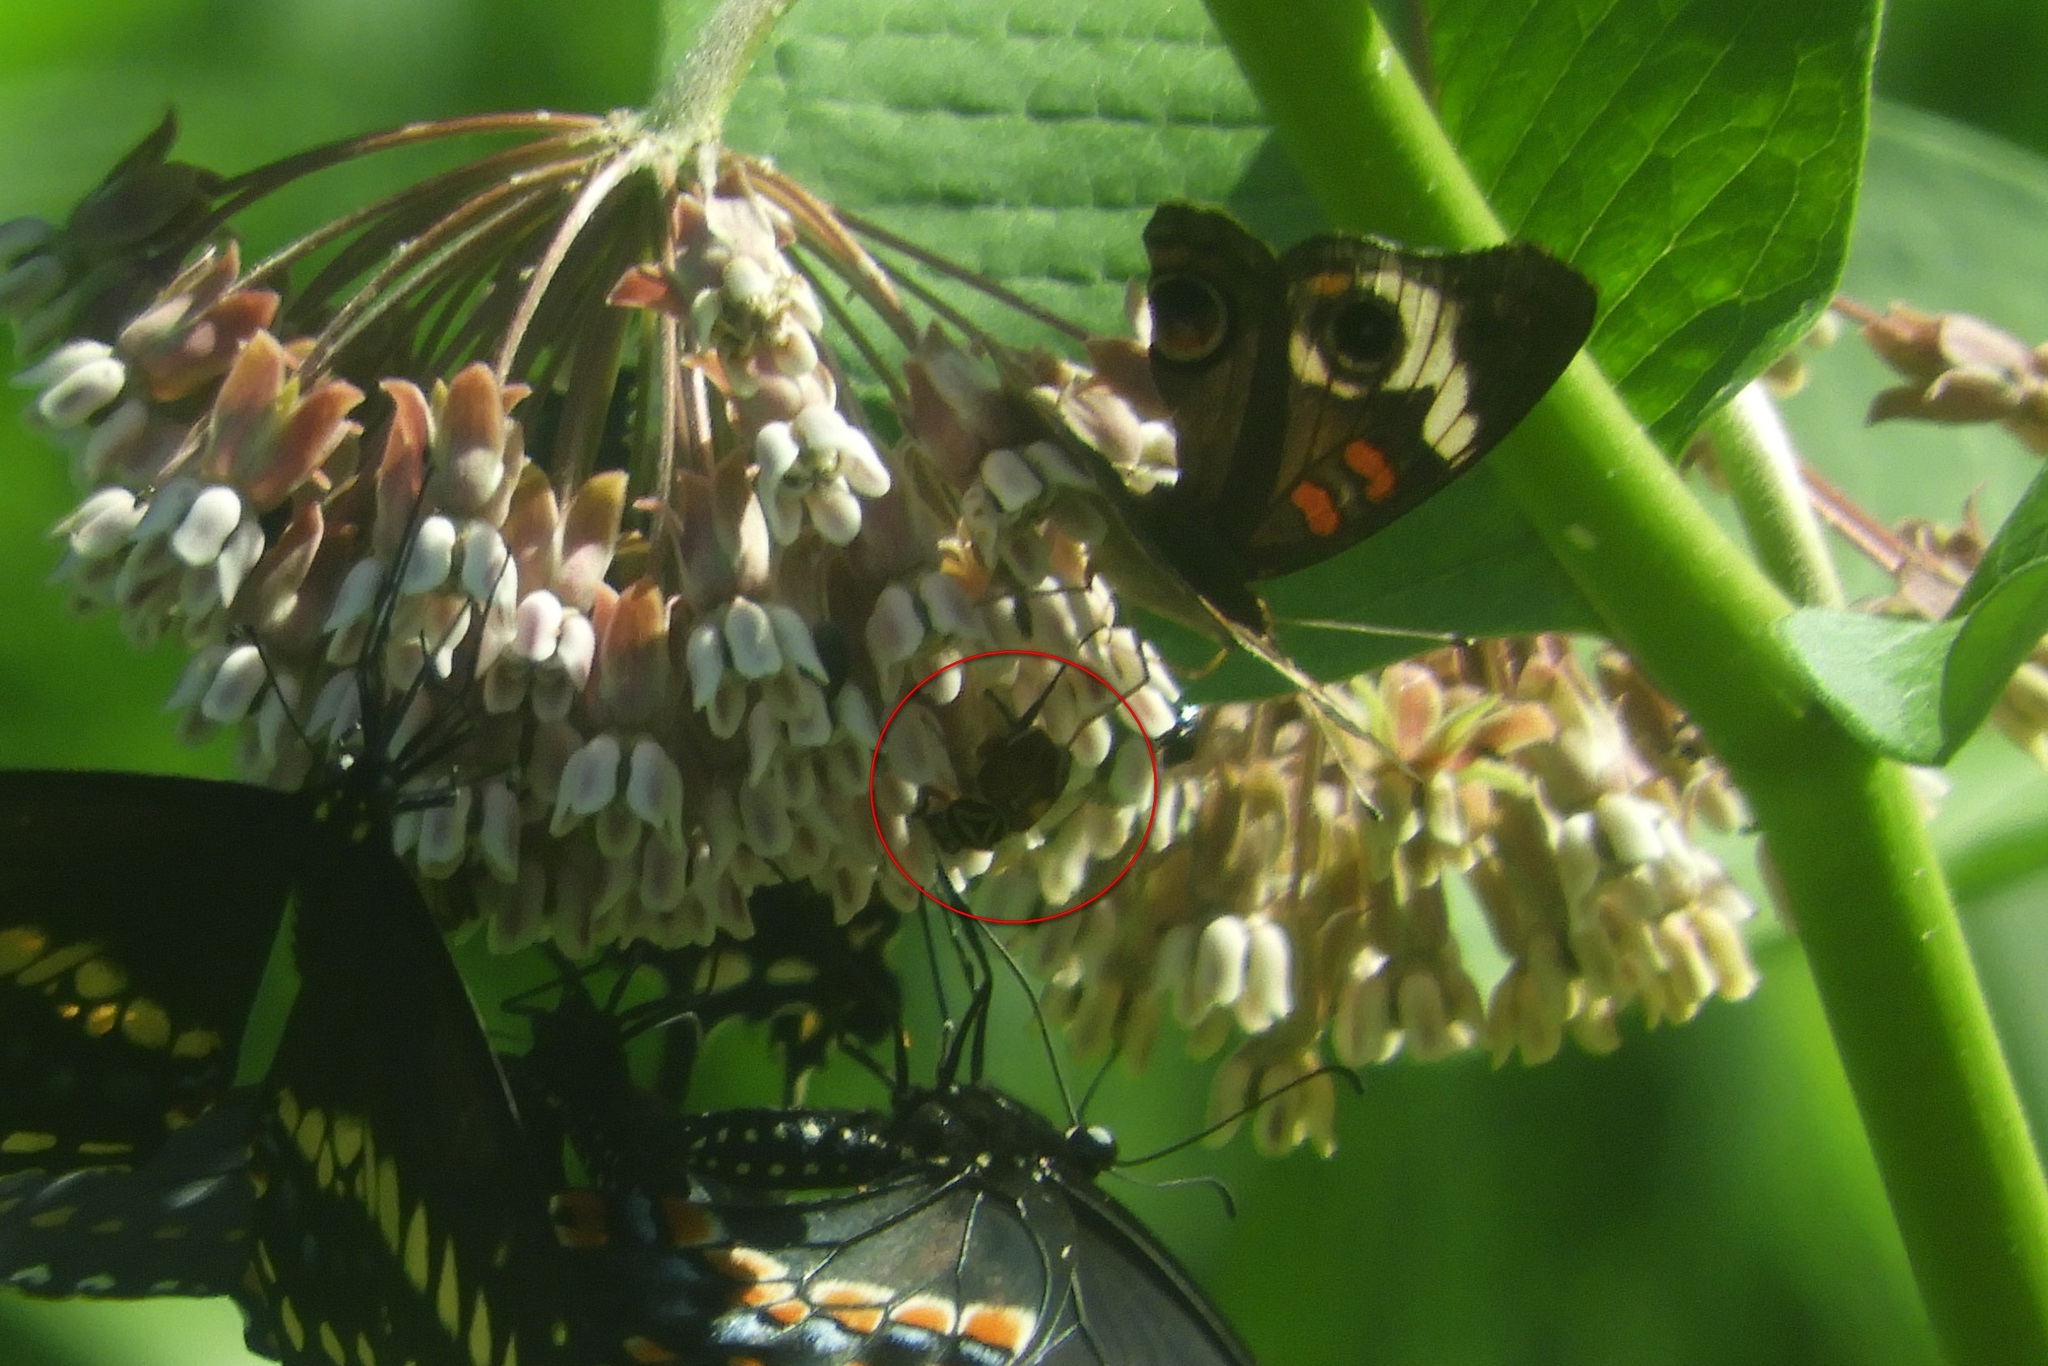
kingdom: Animalia
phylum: Arthropoda
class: Insecta
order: Coleoptera
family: Scarabaeidae
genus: Trigonopeltastes
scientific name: Trigonopeltastes delta
